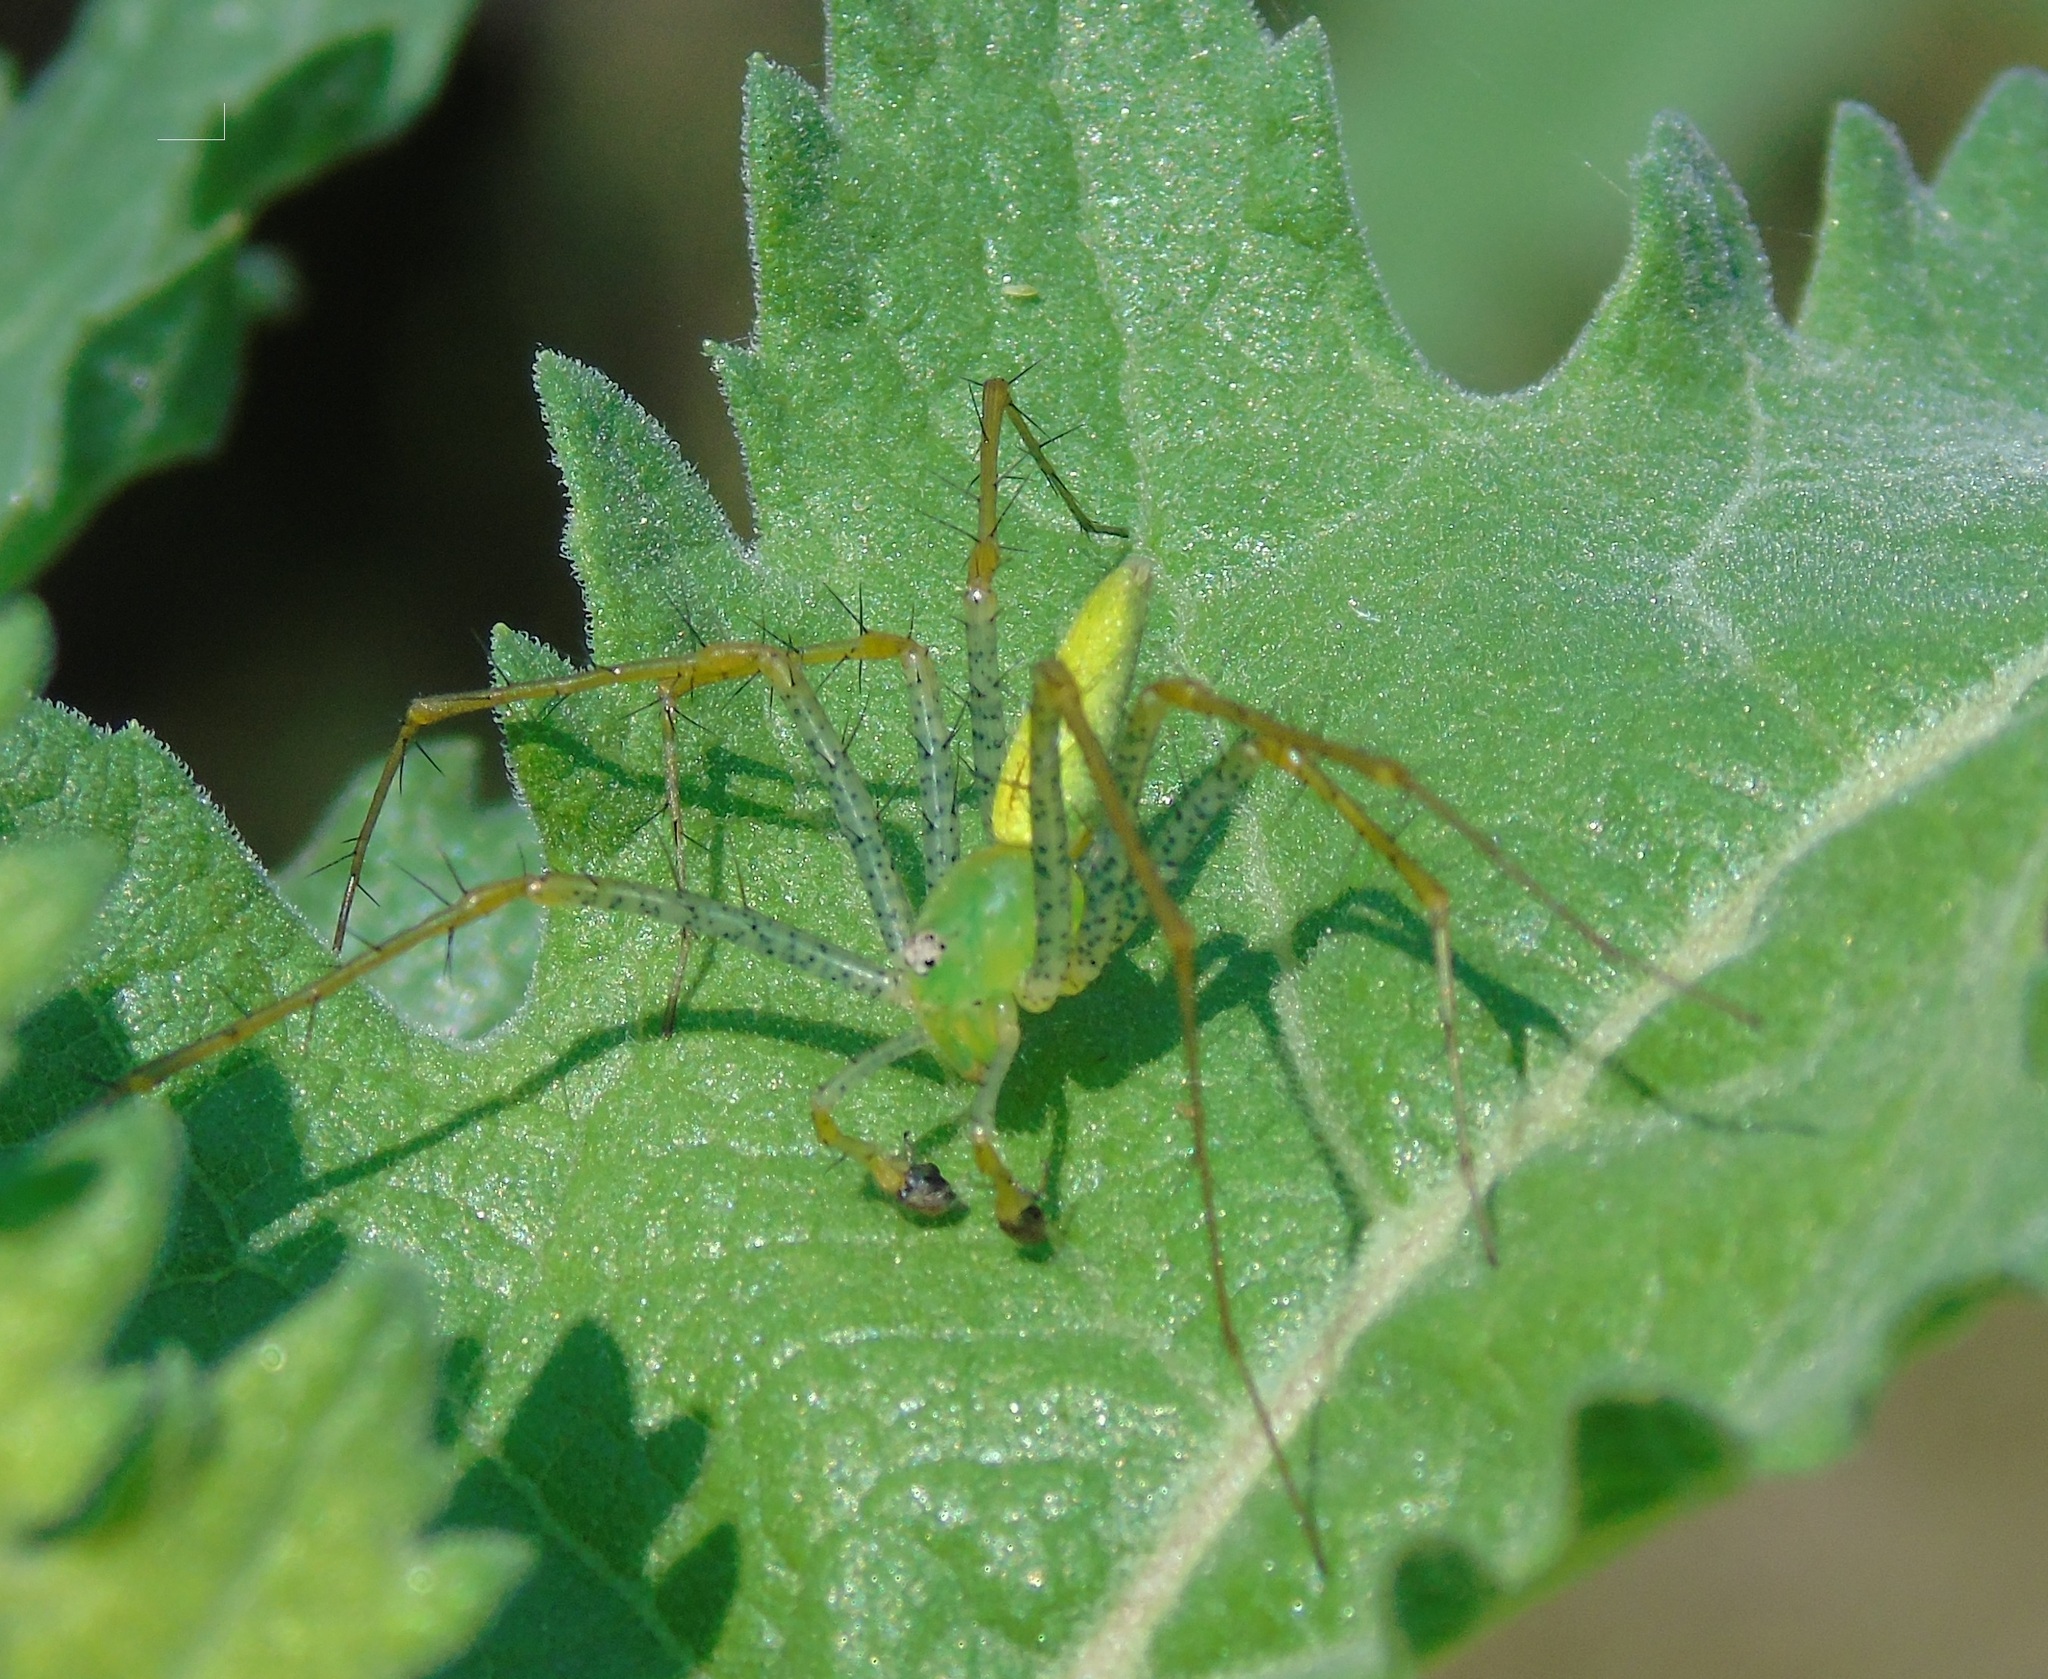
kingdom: Animalia
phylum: Arthropoda
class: Arachnida
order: Araneae
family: Oxyopidae
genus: Peucetia
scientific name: Peucetia longipalpis
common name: Lynx spiders
